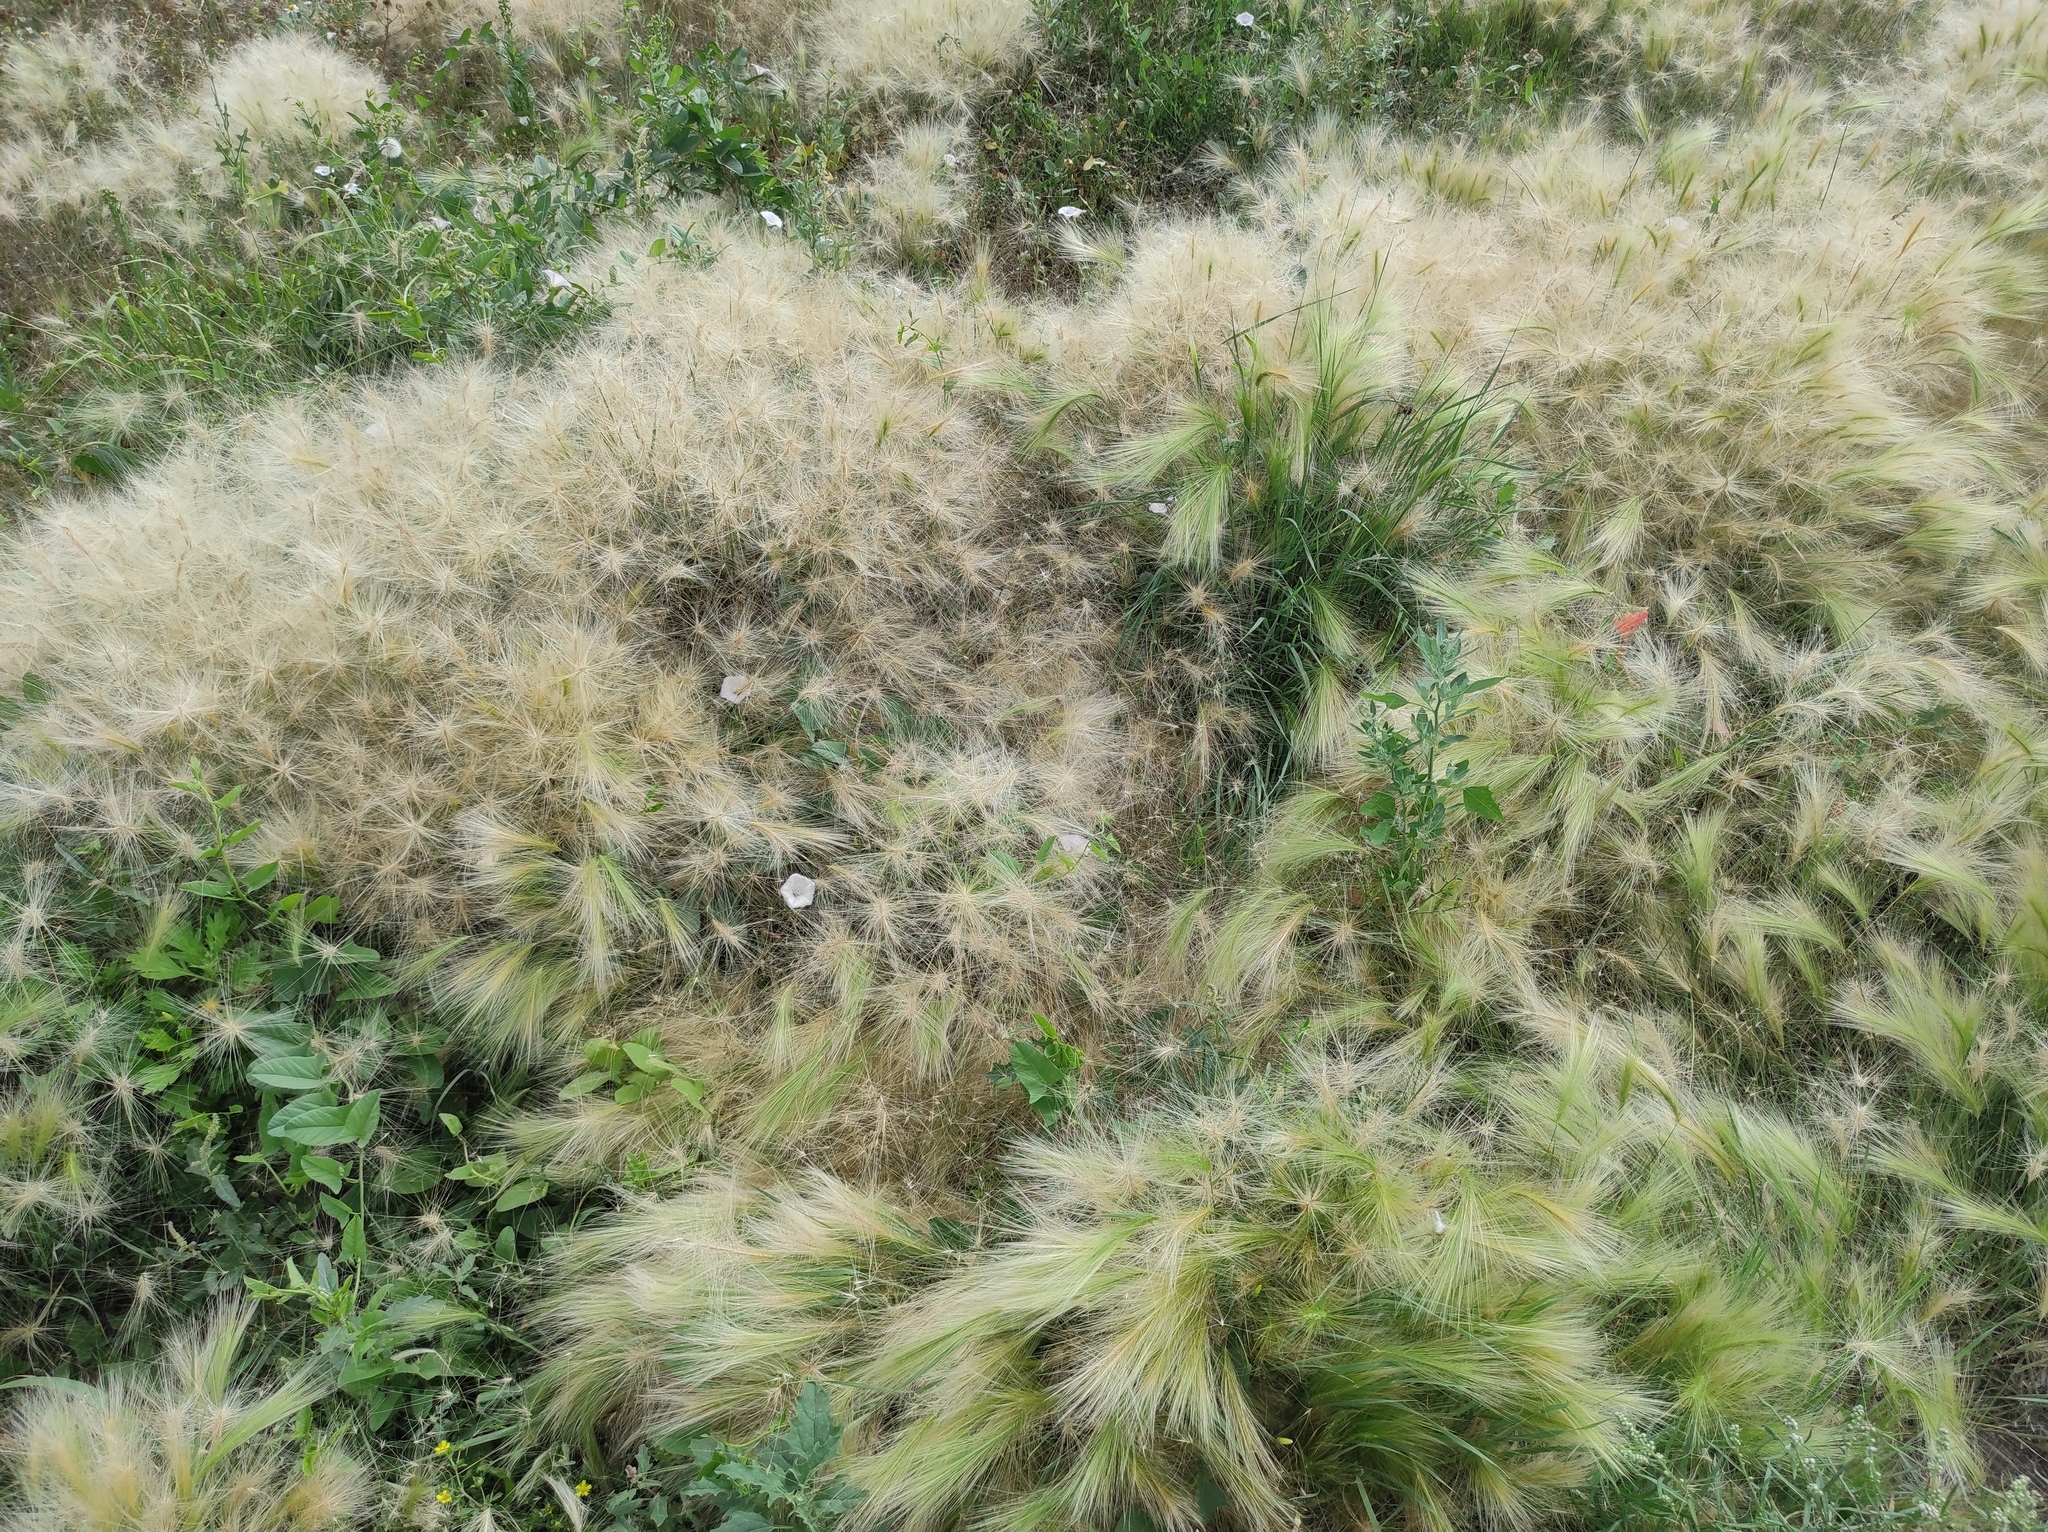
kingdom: Plantae
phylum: Tracheophyta
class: Liliopsida
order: Poales
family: Poaceae
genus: Hordeum
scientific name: Hordeum jubatum
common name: Foxtail barley
